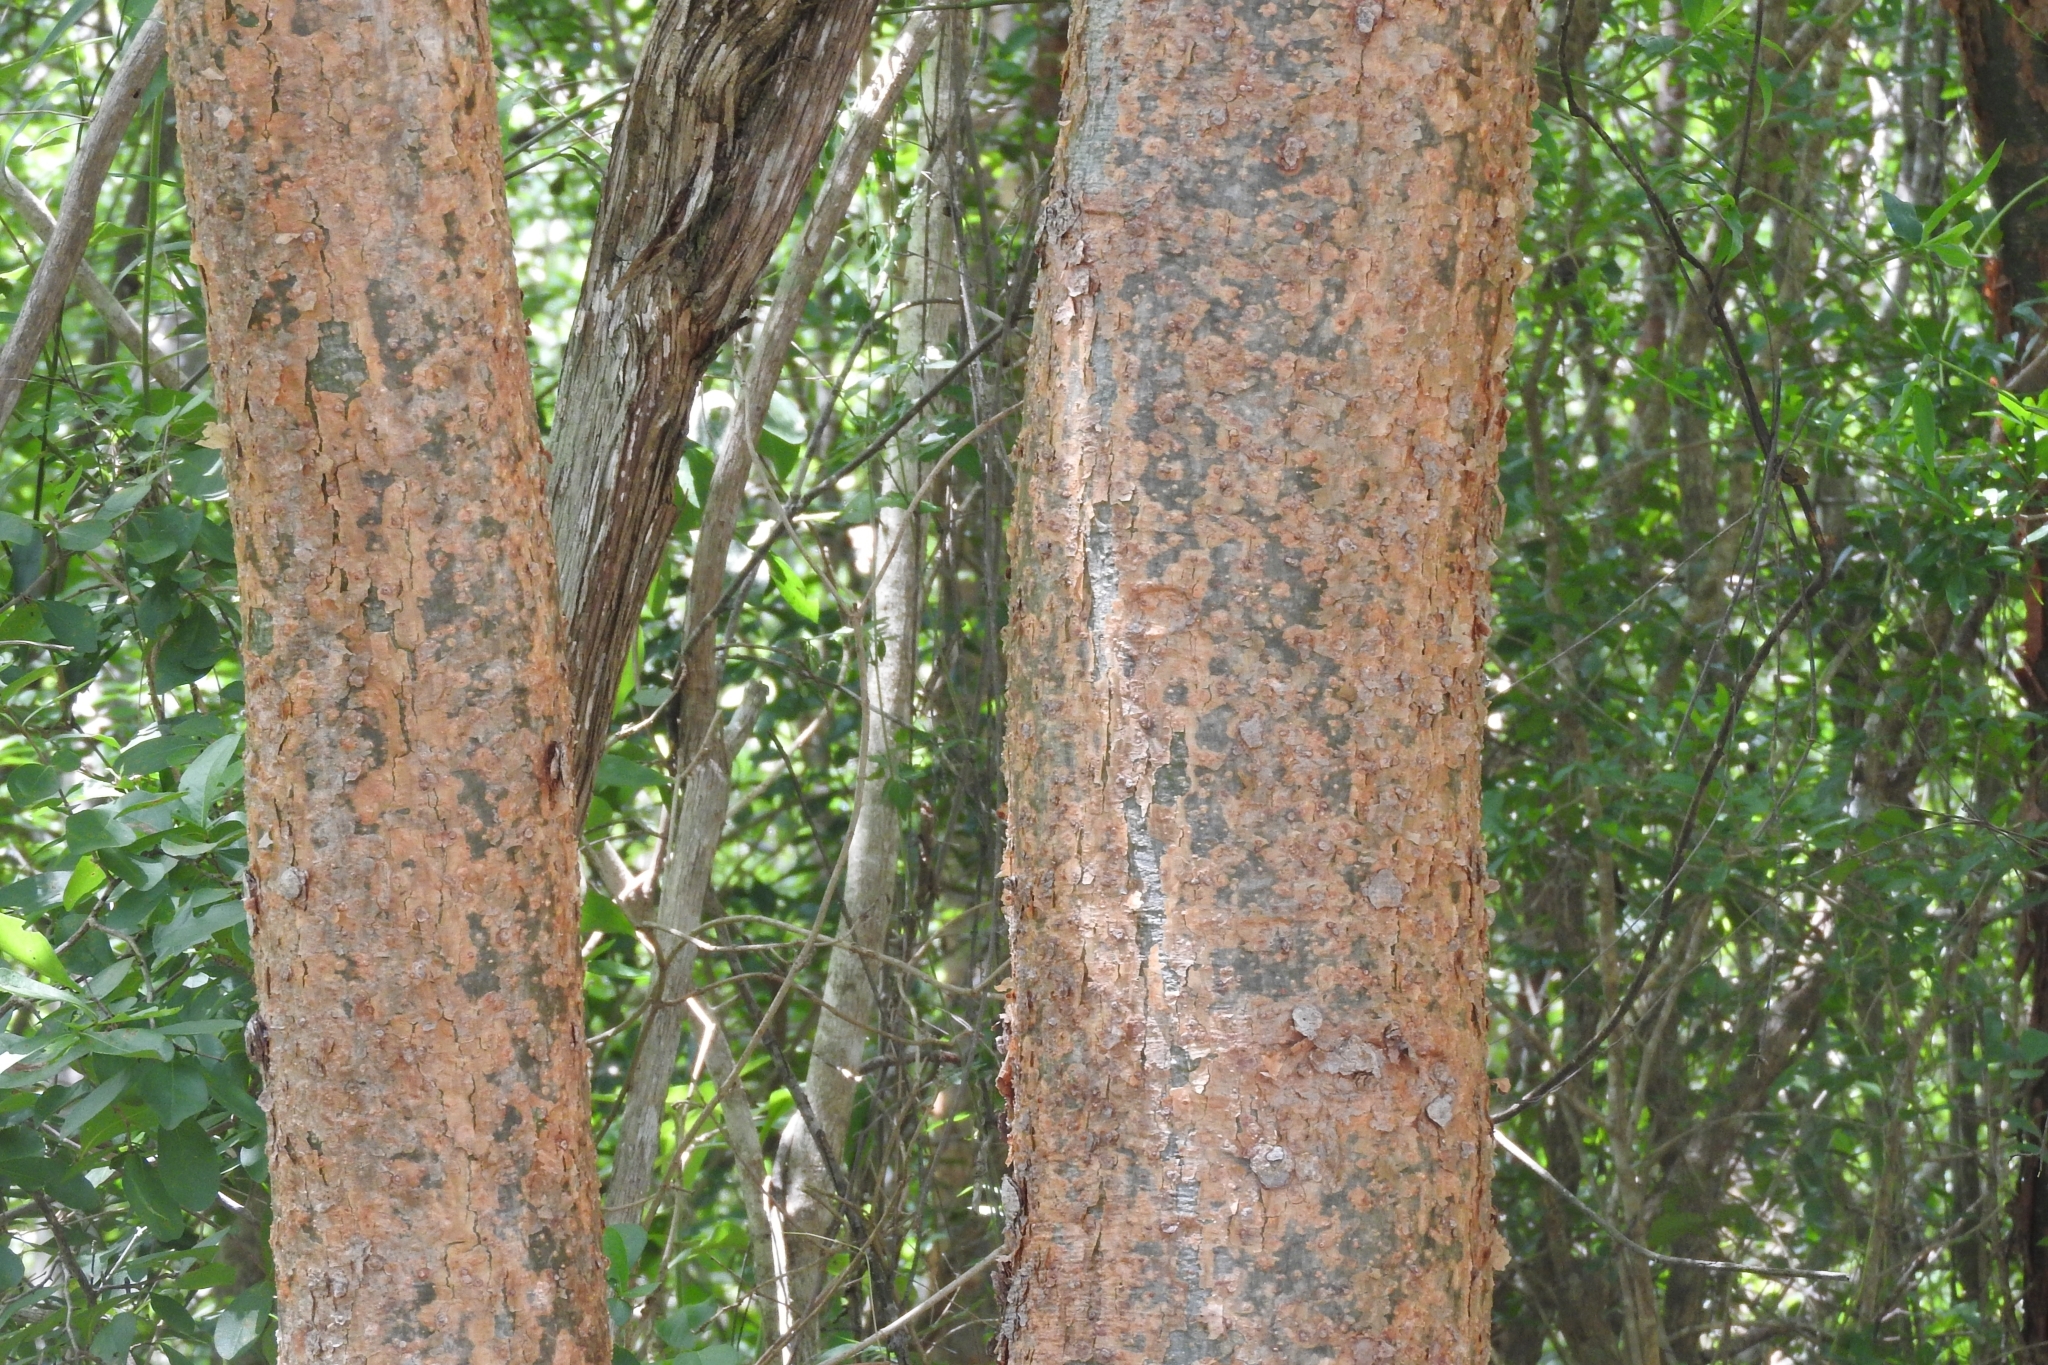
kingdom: Plantae
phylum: Tracheophyta
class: Magnoliopsida
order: Sapindales
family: Burseraceae
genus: Bursera
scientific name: Bursera simaruba
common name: Turpentine tree
